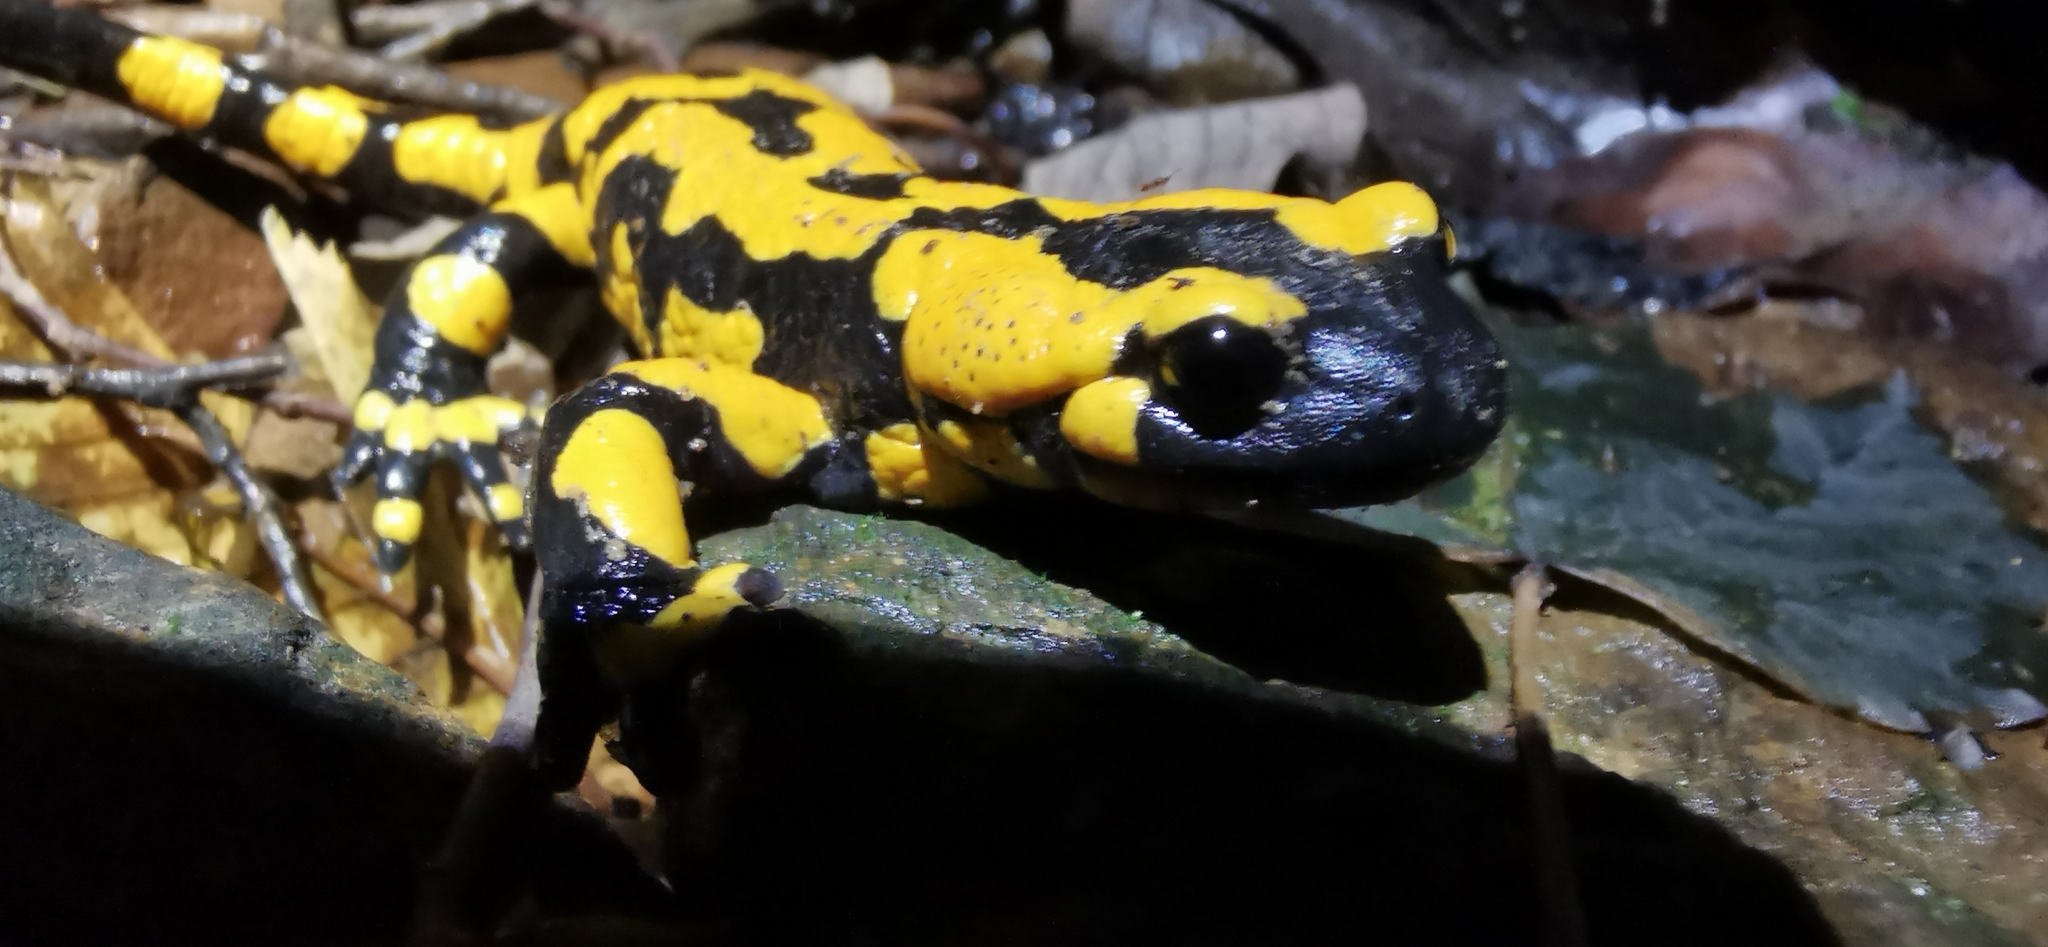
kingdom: Animalia
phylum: Chordata
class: Amphibia
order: Caudata
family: Salamandridae
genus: Salamandra
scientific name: Salamandra salamandra
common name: Fire salamander
